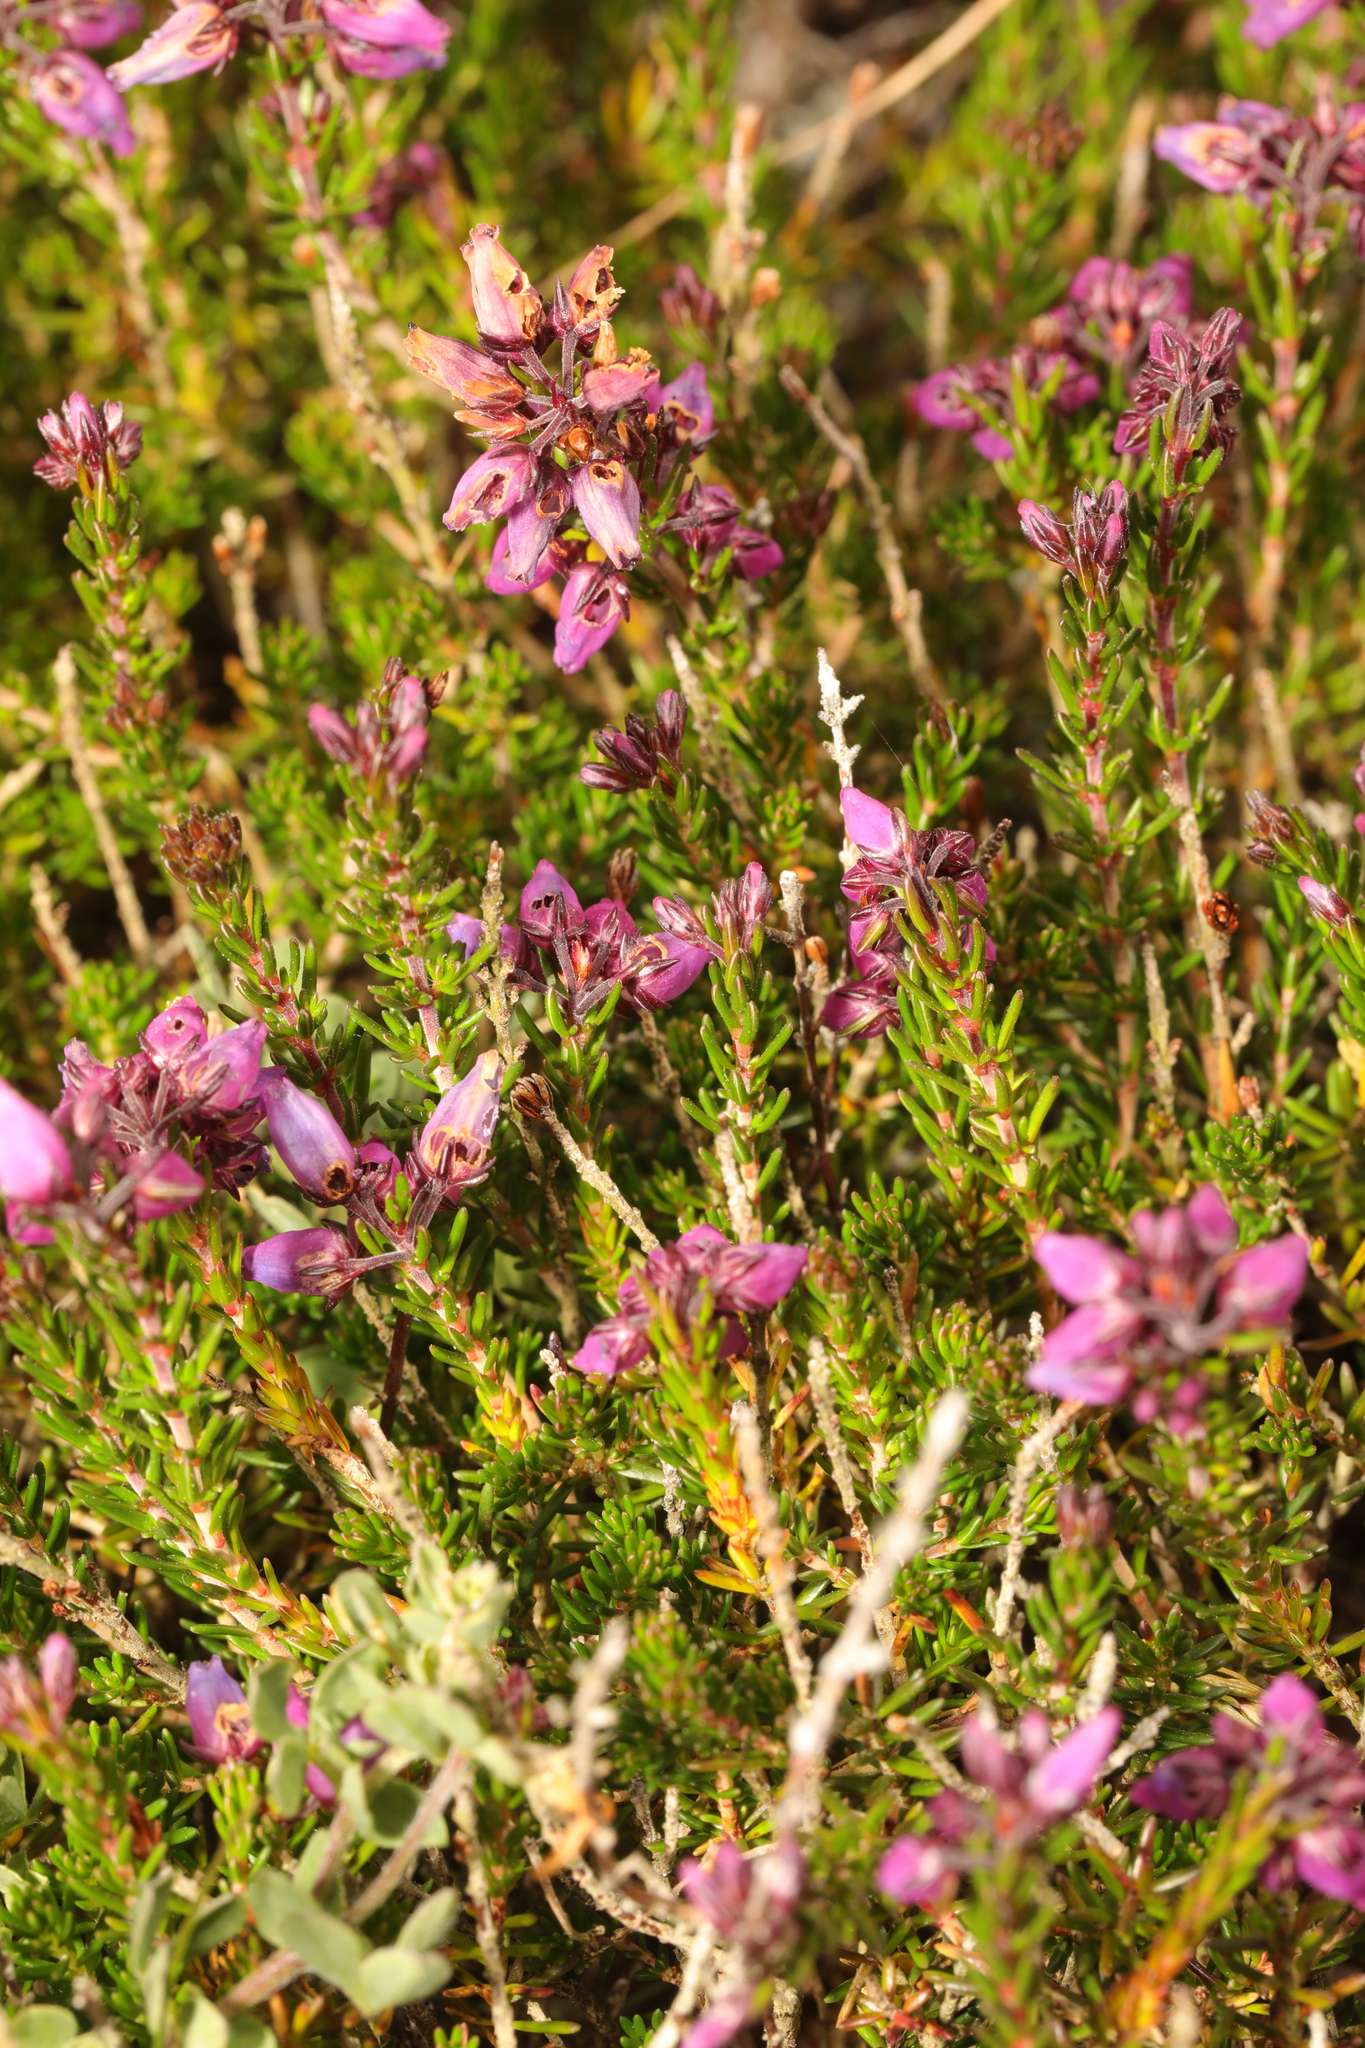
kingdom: Plantae
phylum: Tracheophyta
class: Magnoliopsida
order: Ericales
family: Ericaceae
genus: Erica
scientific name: Erica cinerea
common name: Bell heather
